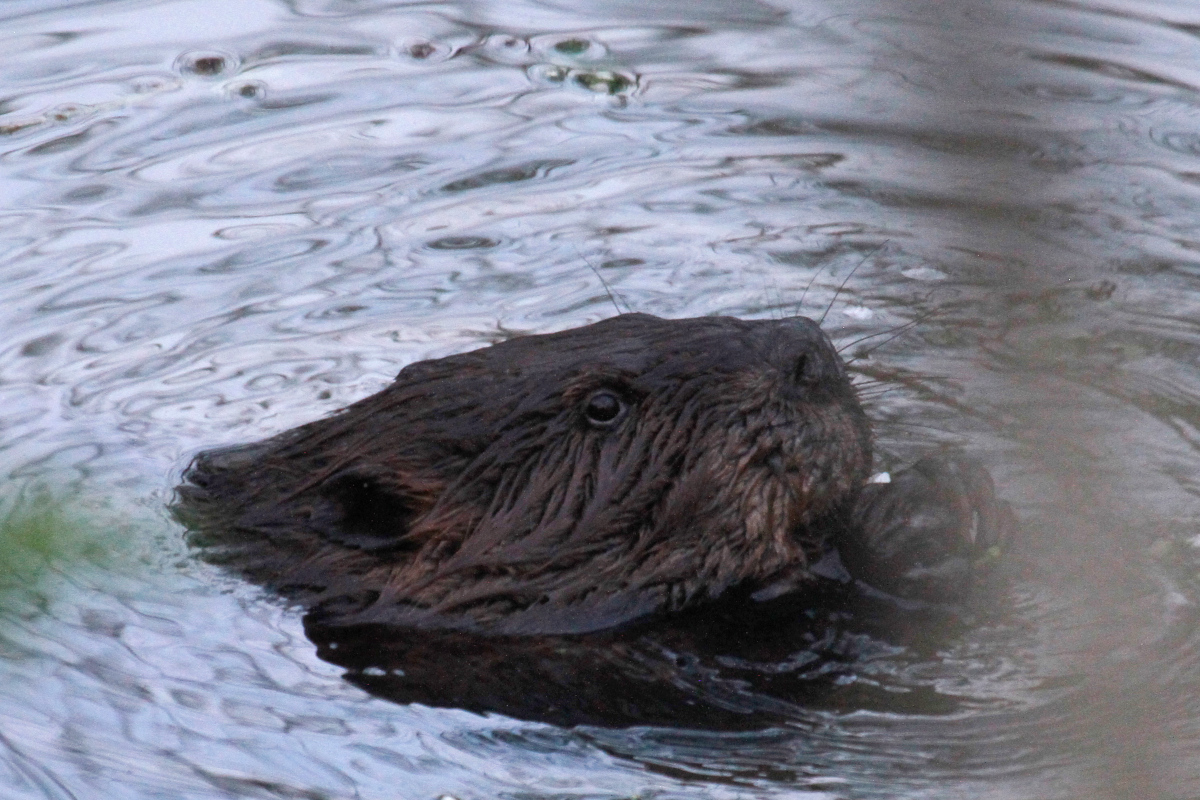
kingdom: Animalia
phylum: Chordata
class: Mammalia
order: Rodentia
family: Castoridae
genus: Castor
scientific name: Castor canadensis
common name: American beaver
